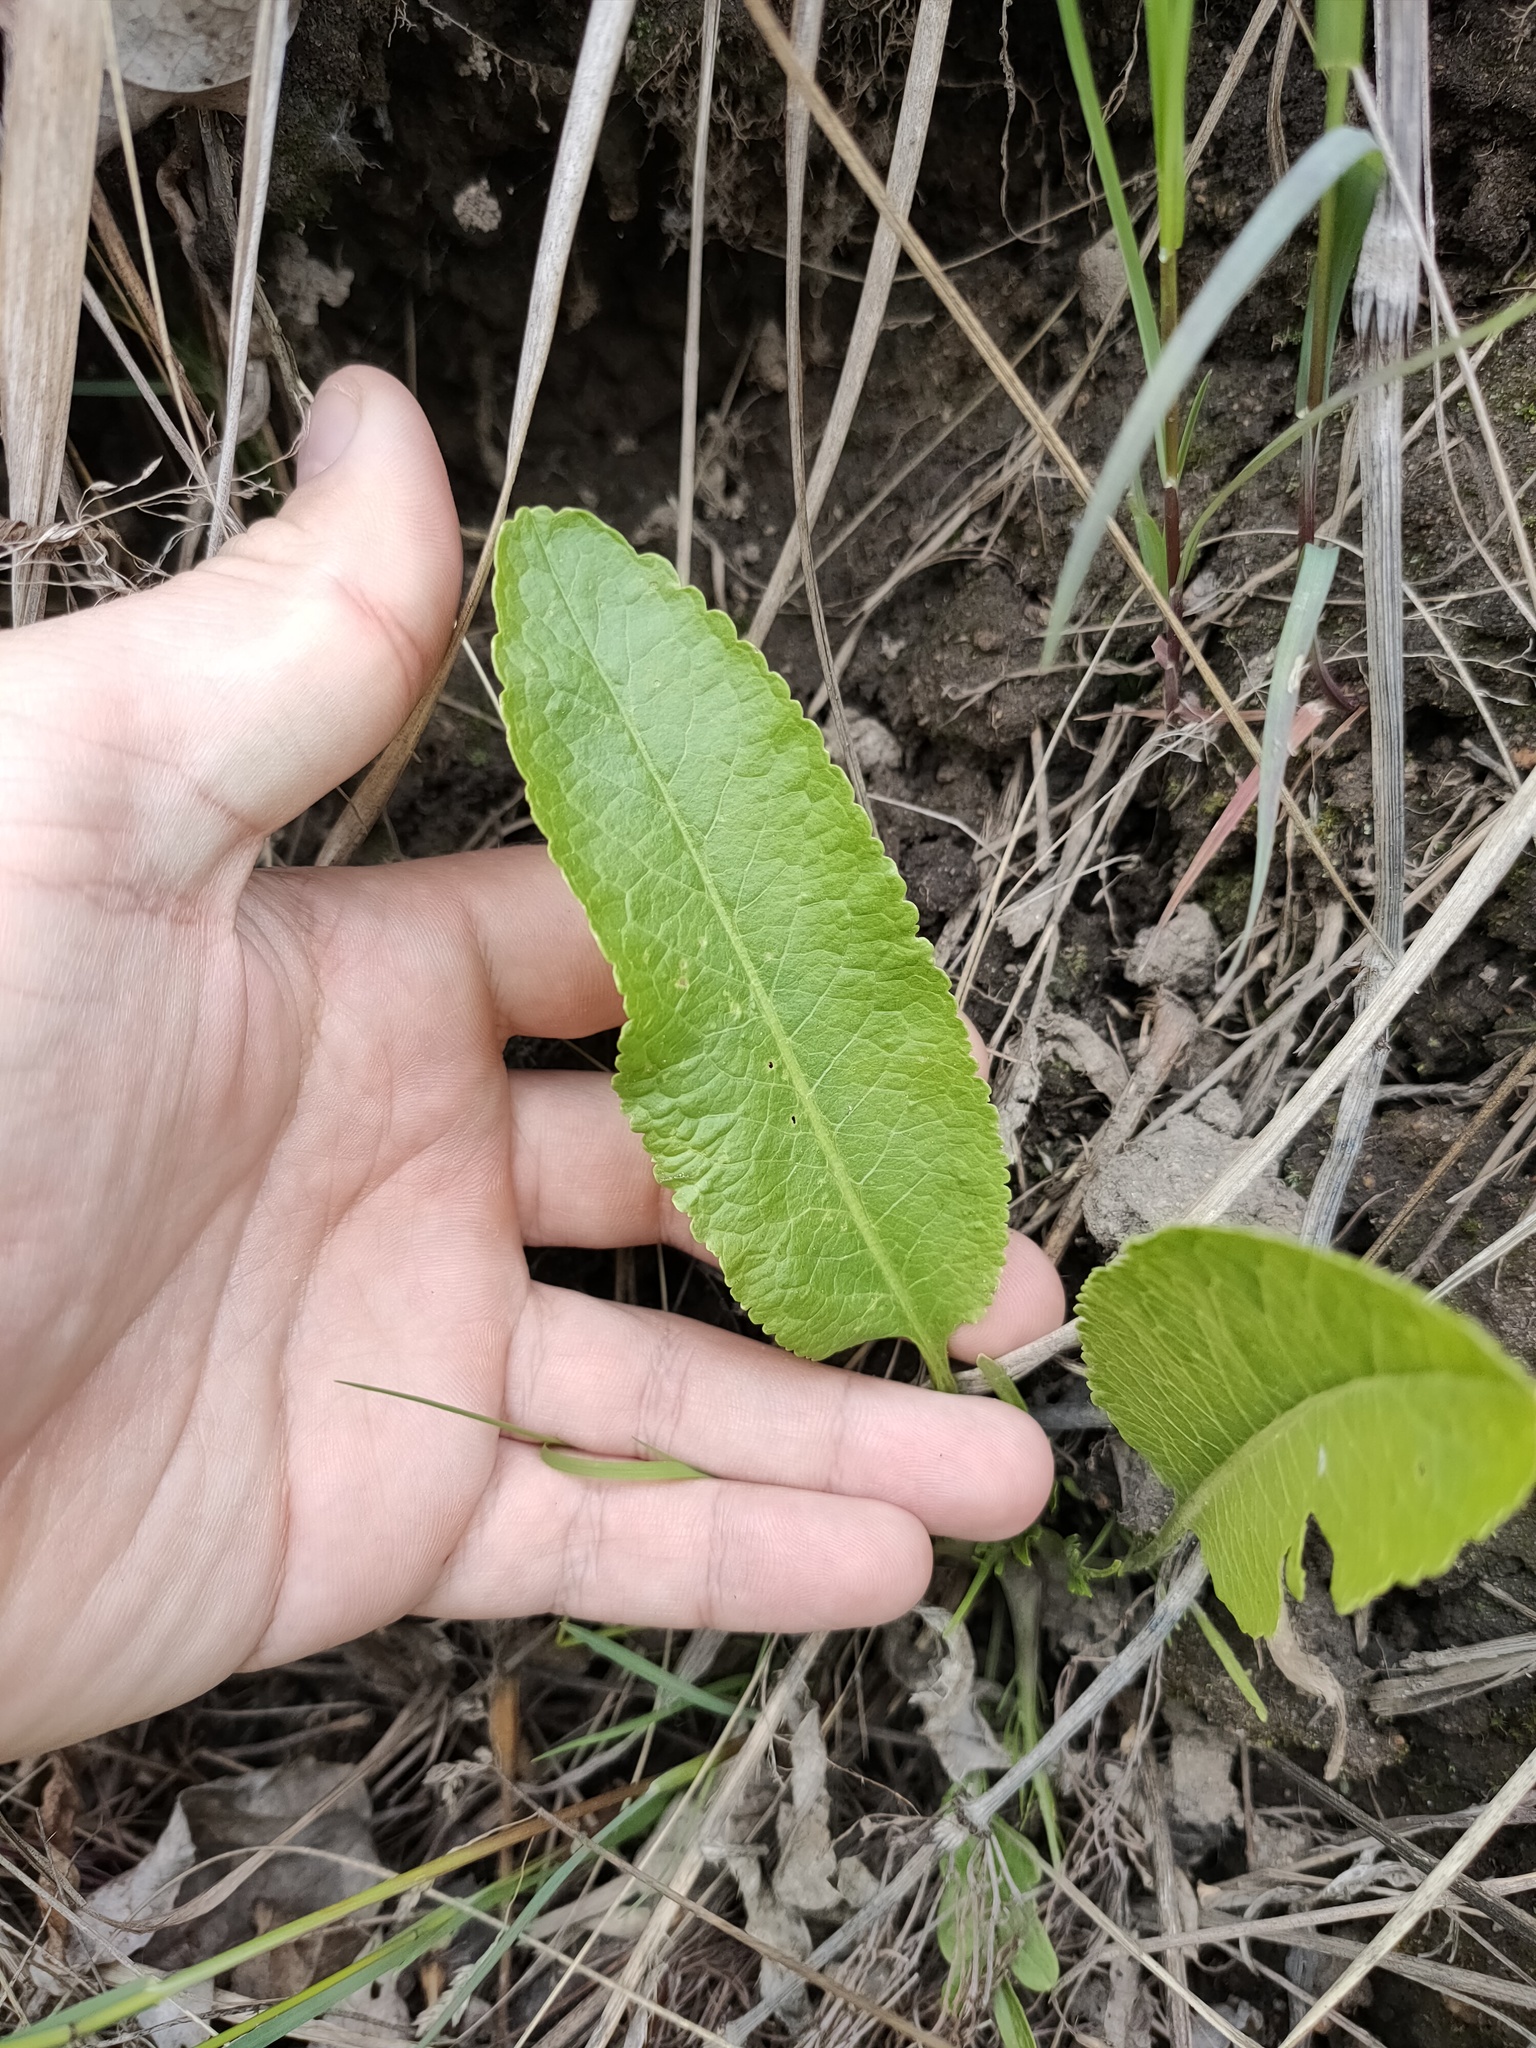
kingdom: Plantae
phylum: Tracheophyta
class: Magnoliopsida
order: Brassicales
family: Brassicaceae
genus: Armoracia
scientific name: Armoracia rusticana
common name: Horseradish
